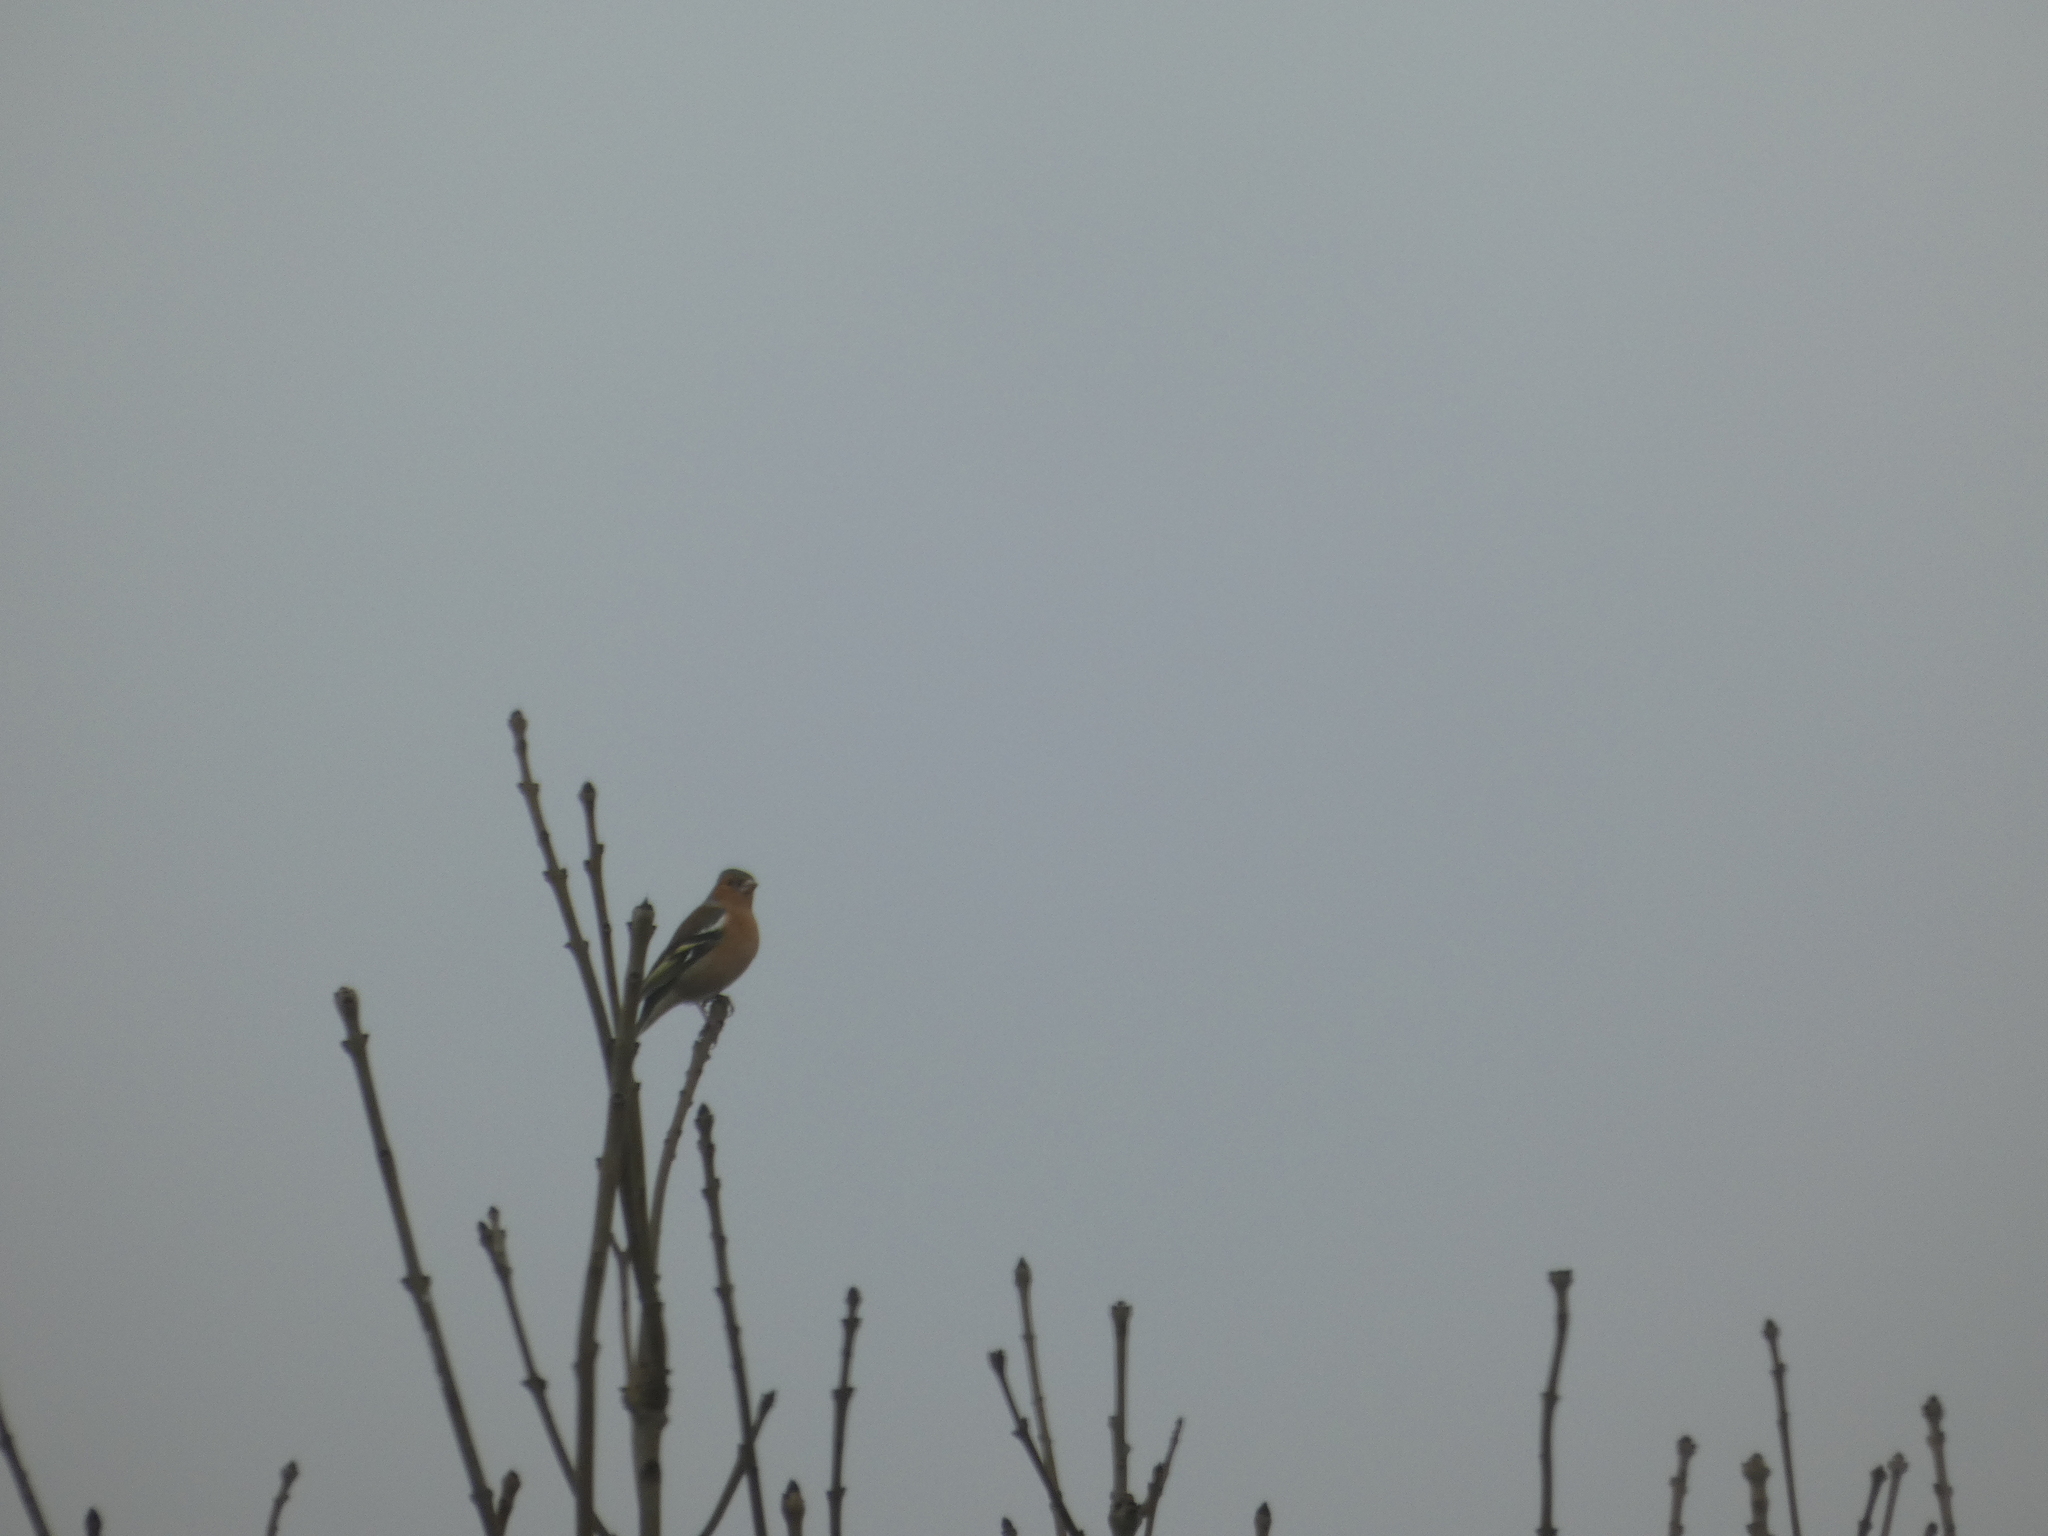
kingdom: Animalia
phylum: Chordata
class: Aves
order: Passeriformes
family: Fringillidae
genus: Fringilla
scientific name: Fringilla coelebs
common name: Common chaffinch
